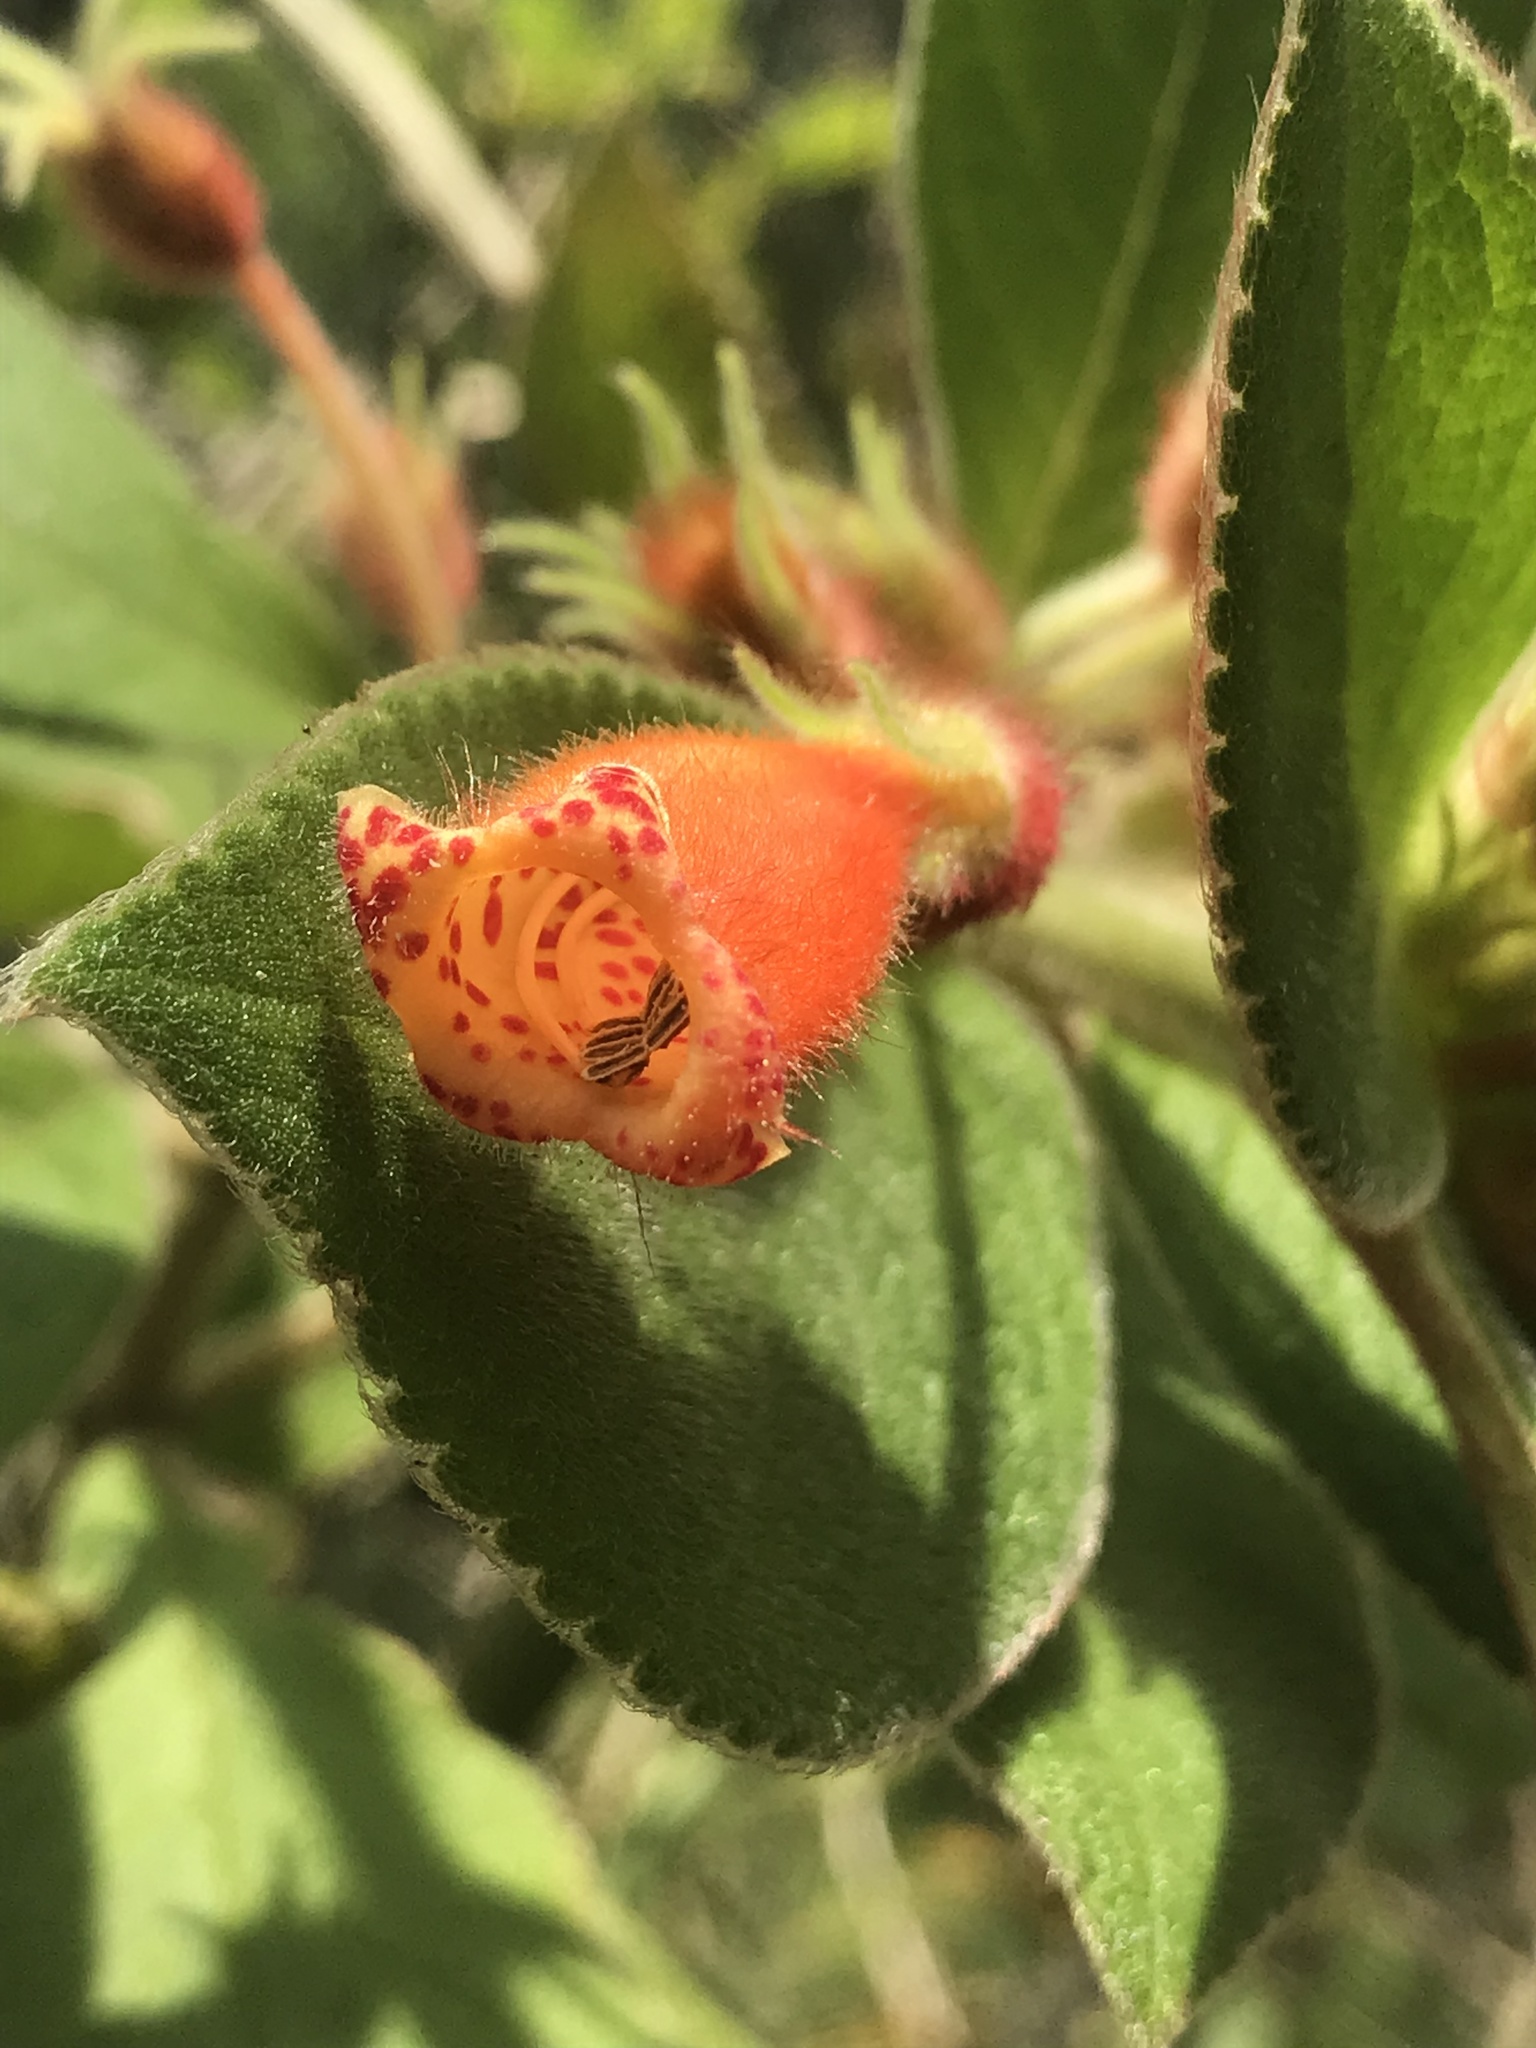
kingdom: Plantae
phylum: Tracheophyta
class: Magnoliopsida
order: Lamiales
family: Gesneriaceae
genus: Kohleria
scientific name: Kohleria hirsuta
